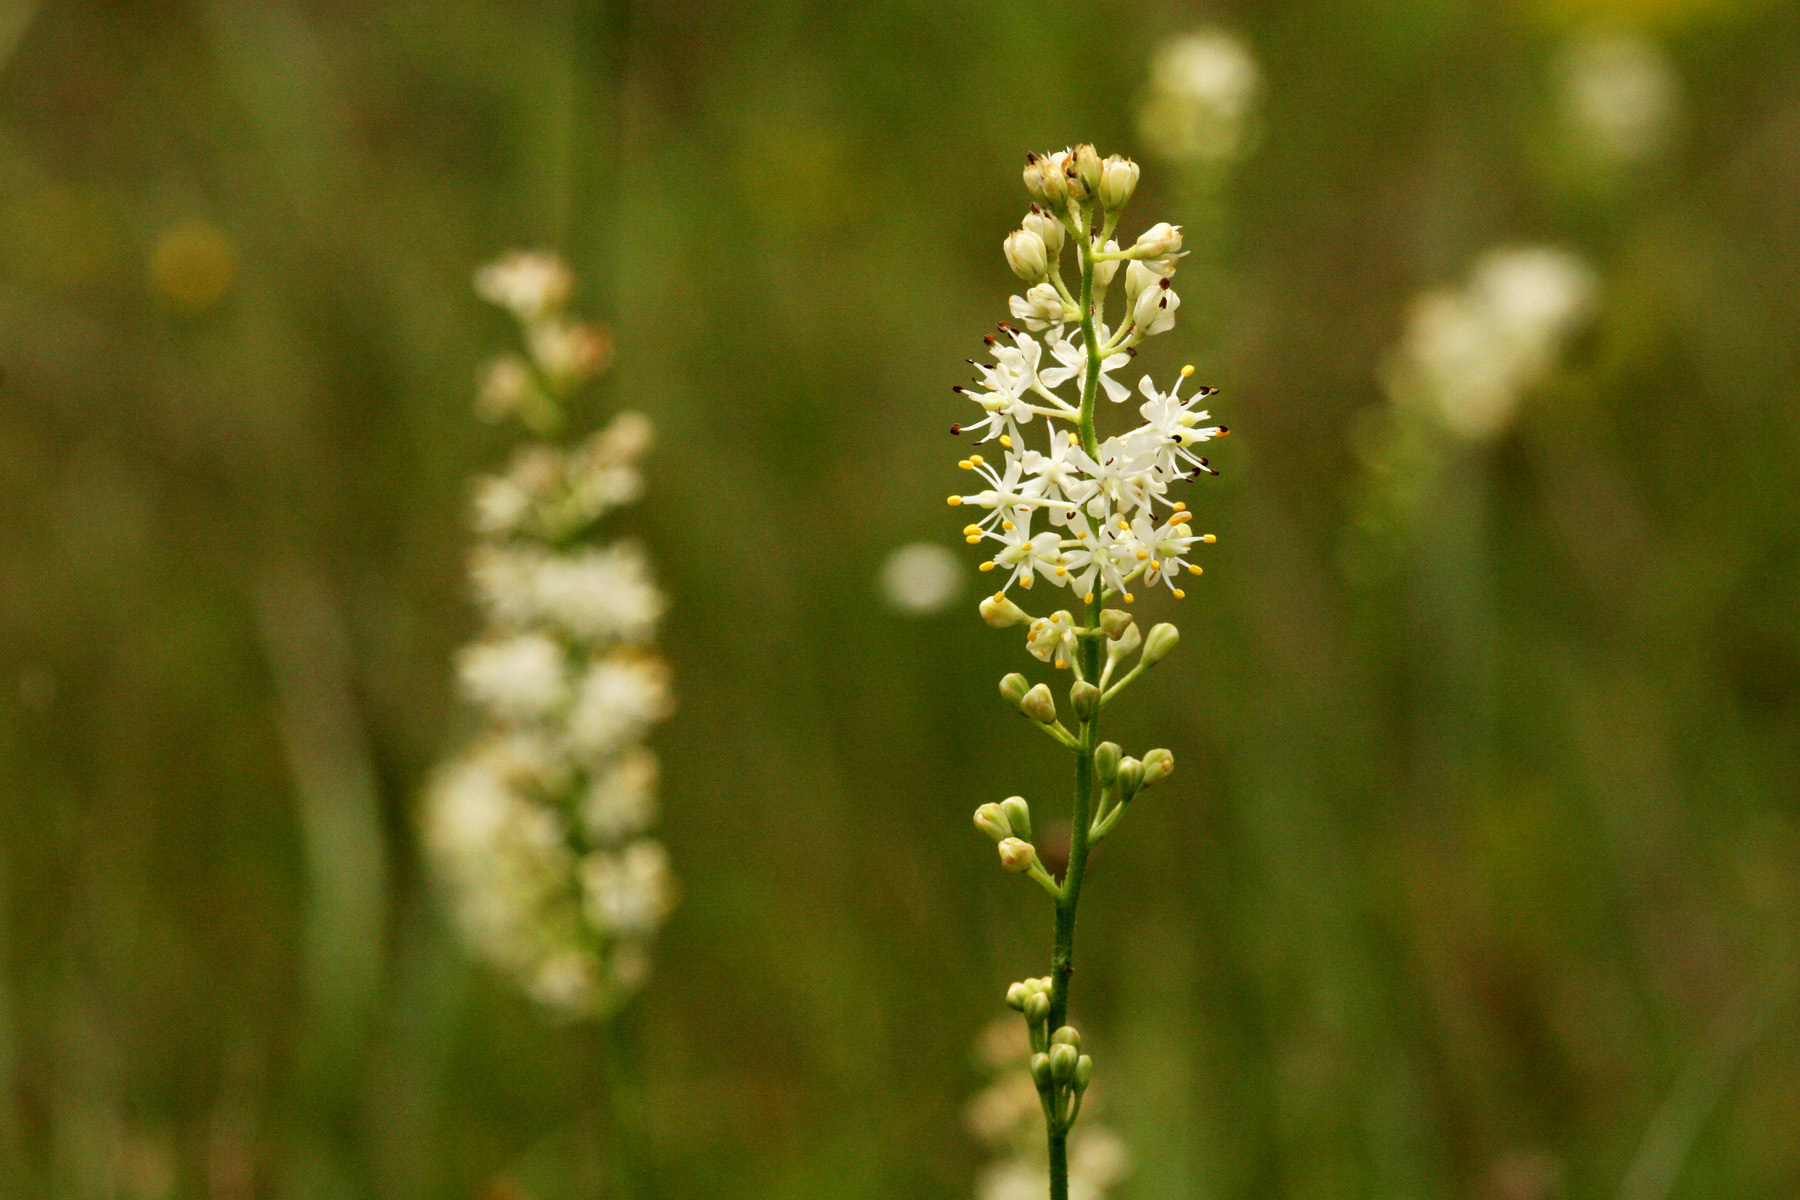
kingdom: Plantae
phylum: Tracheophyta
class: Liliopsida
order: Alismatales
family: Tofieldiaceae
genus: Triantha
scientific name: Triantha racemosa
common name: Coastal false asphodel
